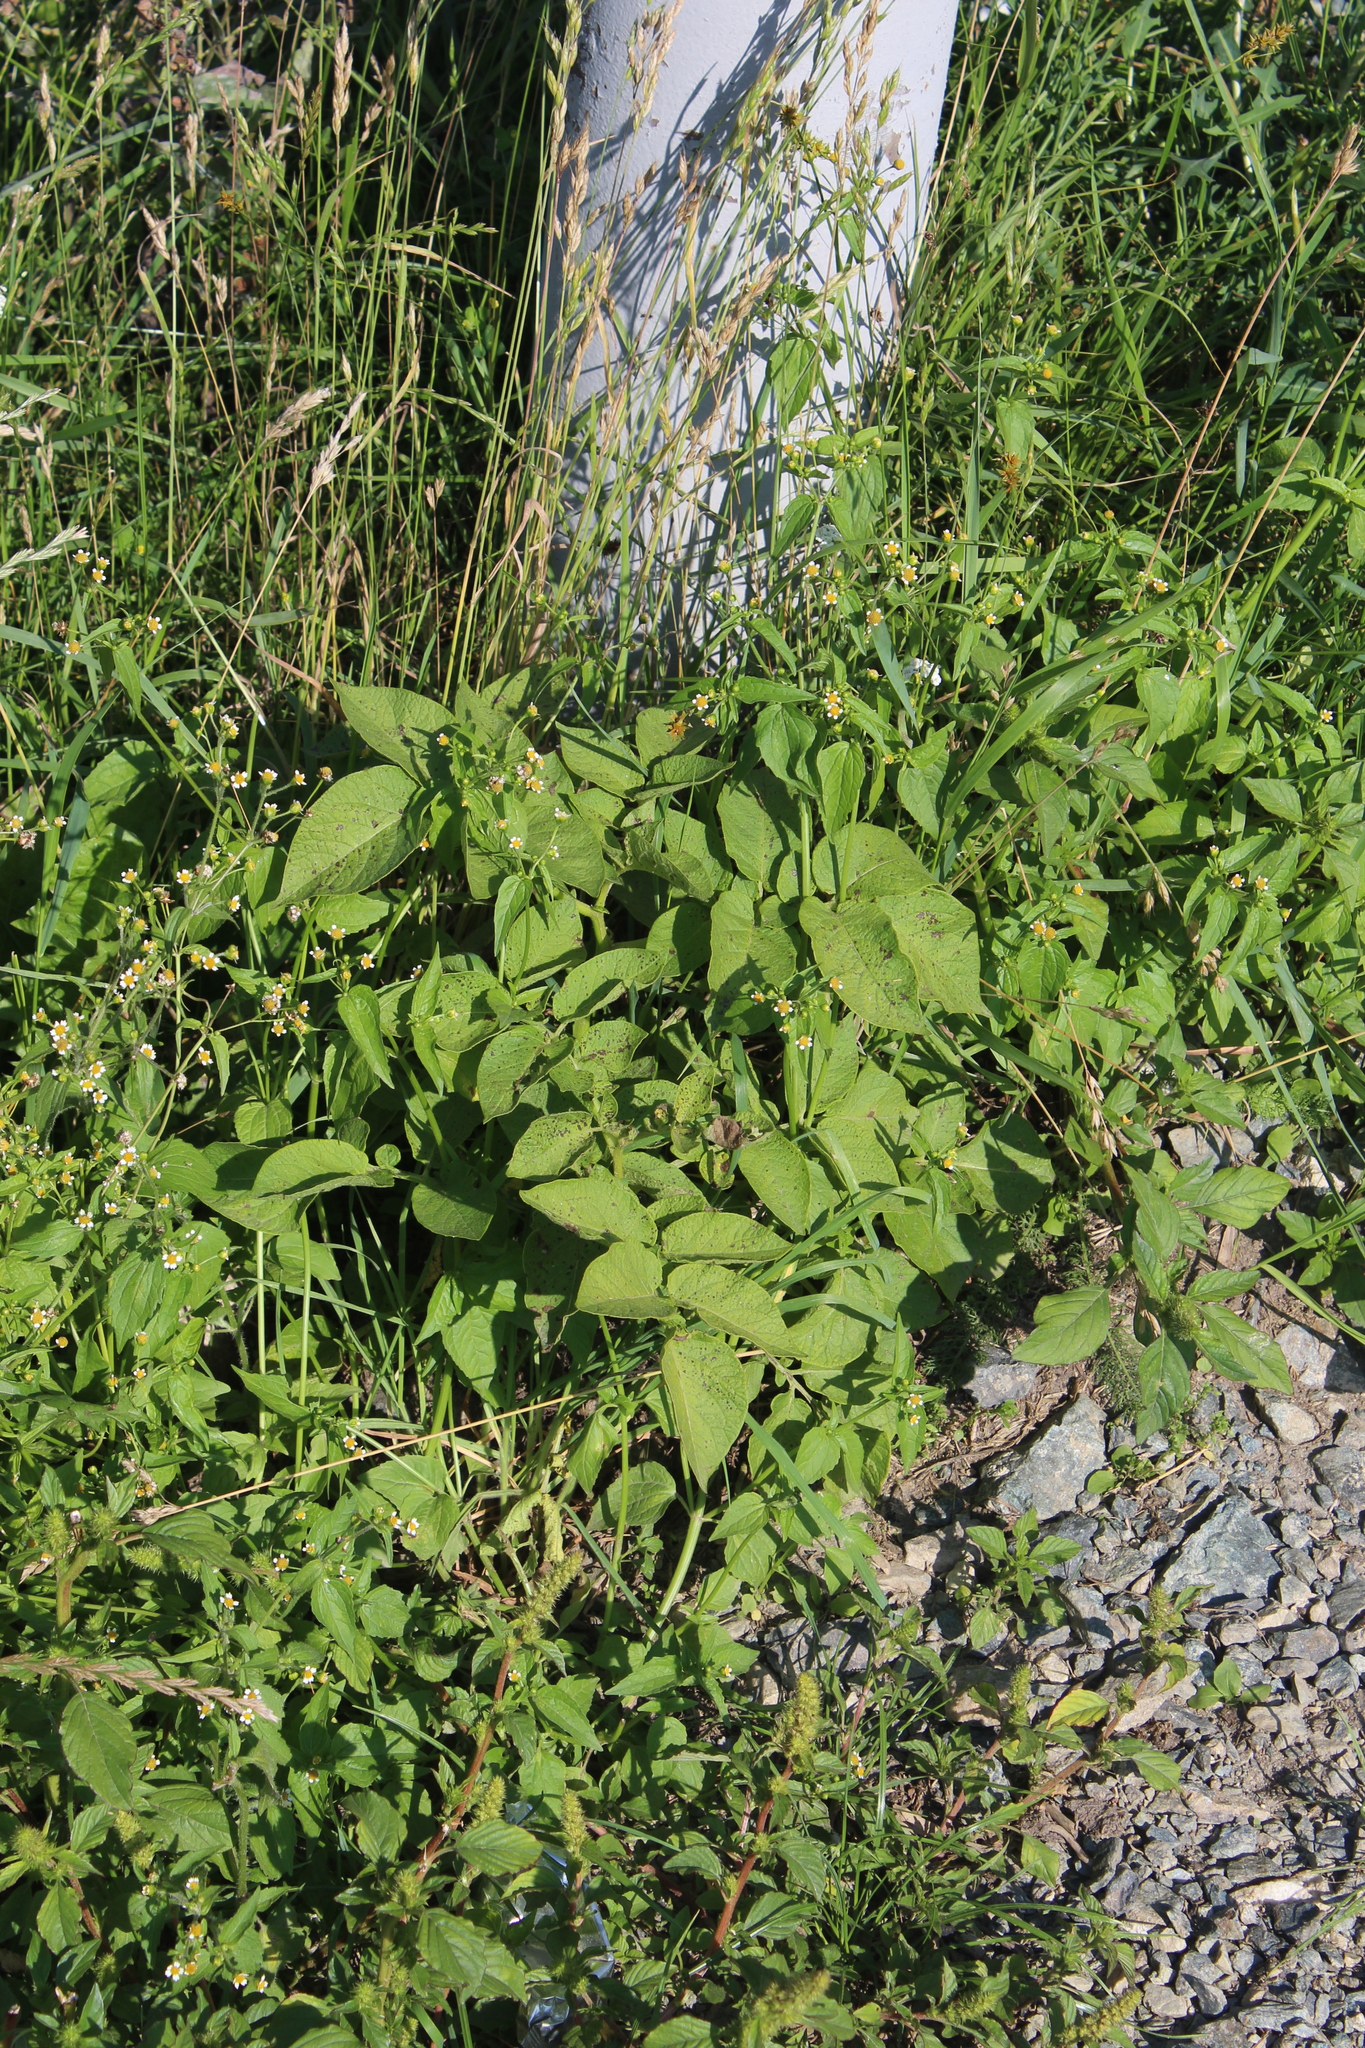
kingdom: Plantae
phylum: Tracheophyta
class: Magnoliopsida
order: Solanales
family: Solanaceae
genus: Solanum
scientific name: Solanum tuberosum
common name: Potato
